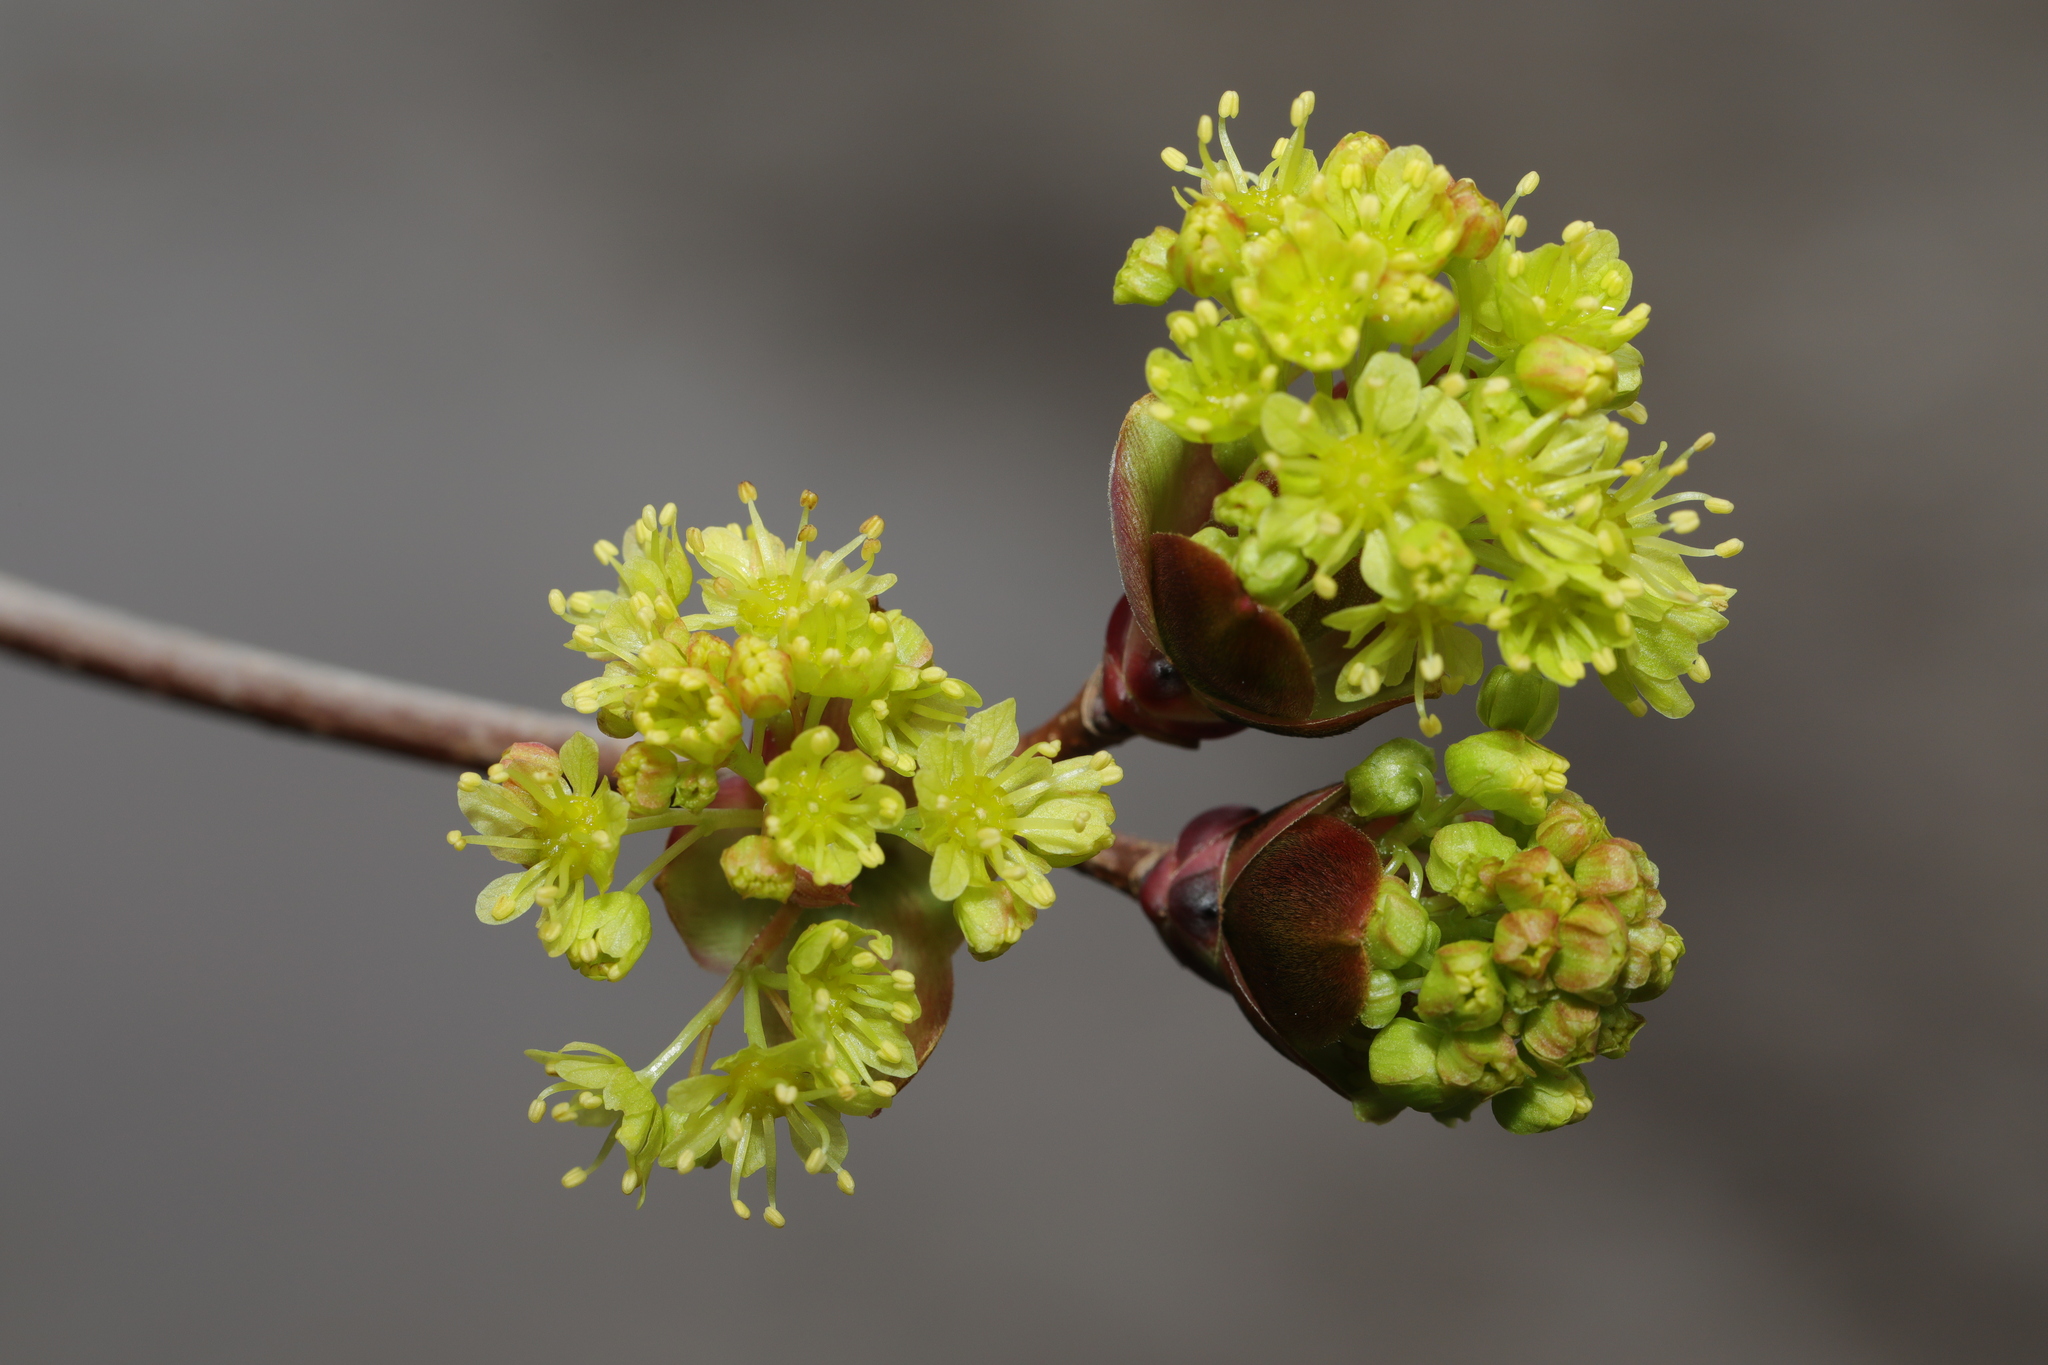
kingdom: Plantae
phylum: Tracheophyta
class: Magnoliopsida
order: Sapindales
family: Sapindaceae
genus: Acer
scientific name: Acer platanoides
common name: Norway maple
